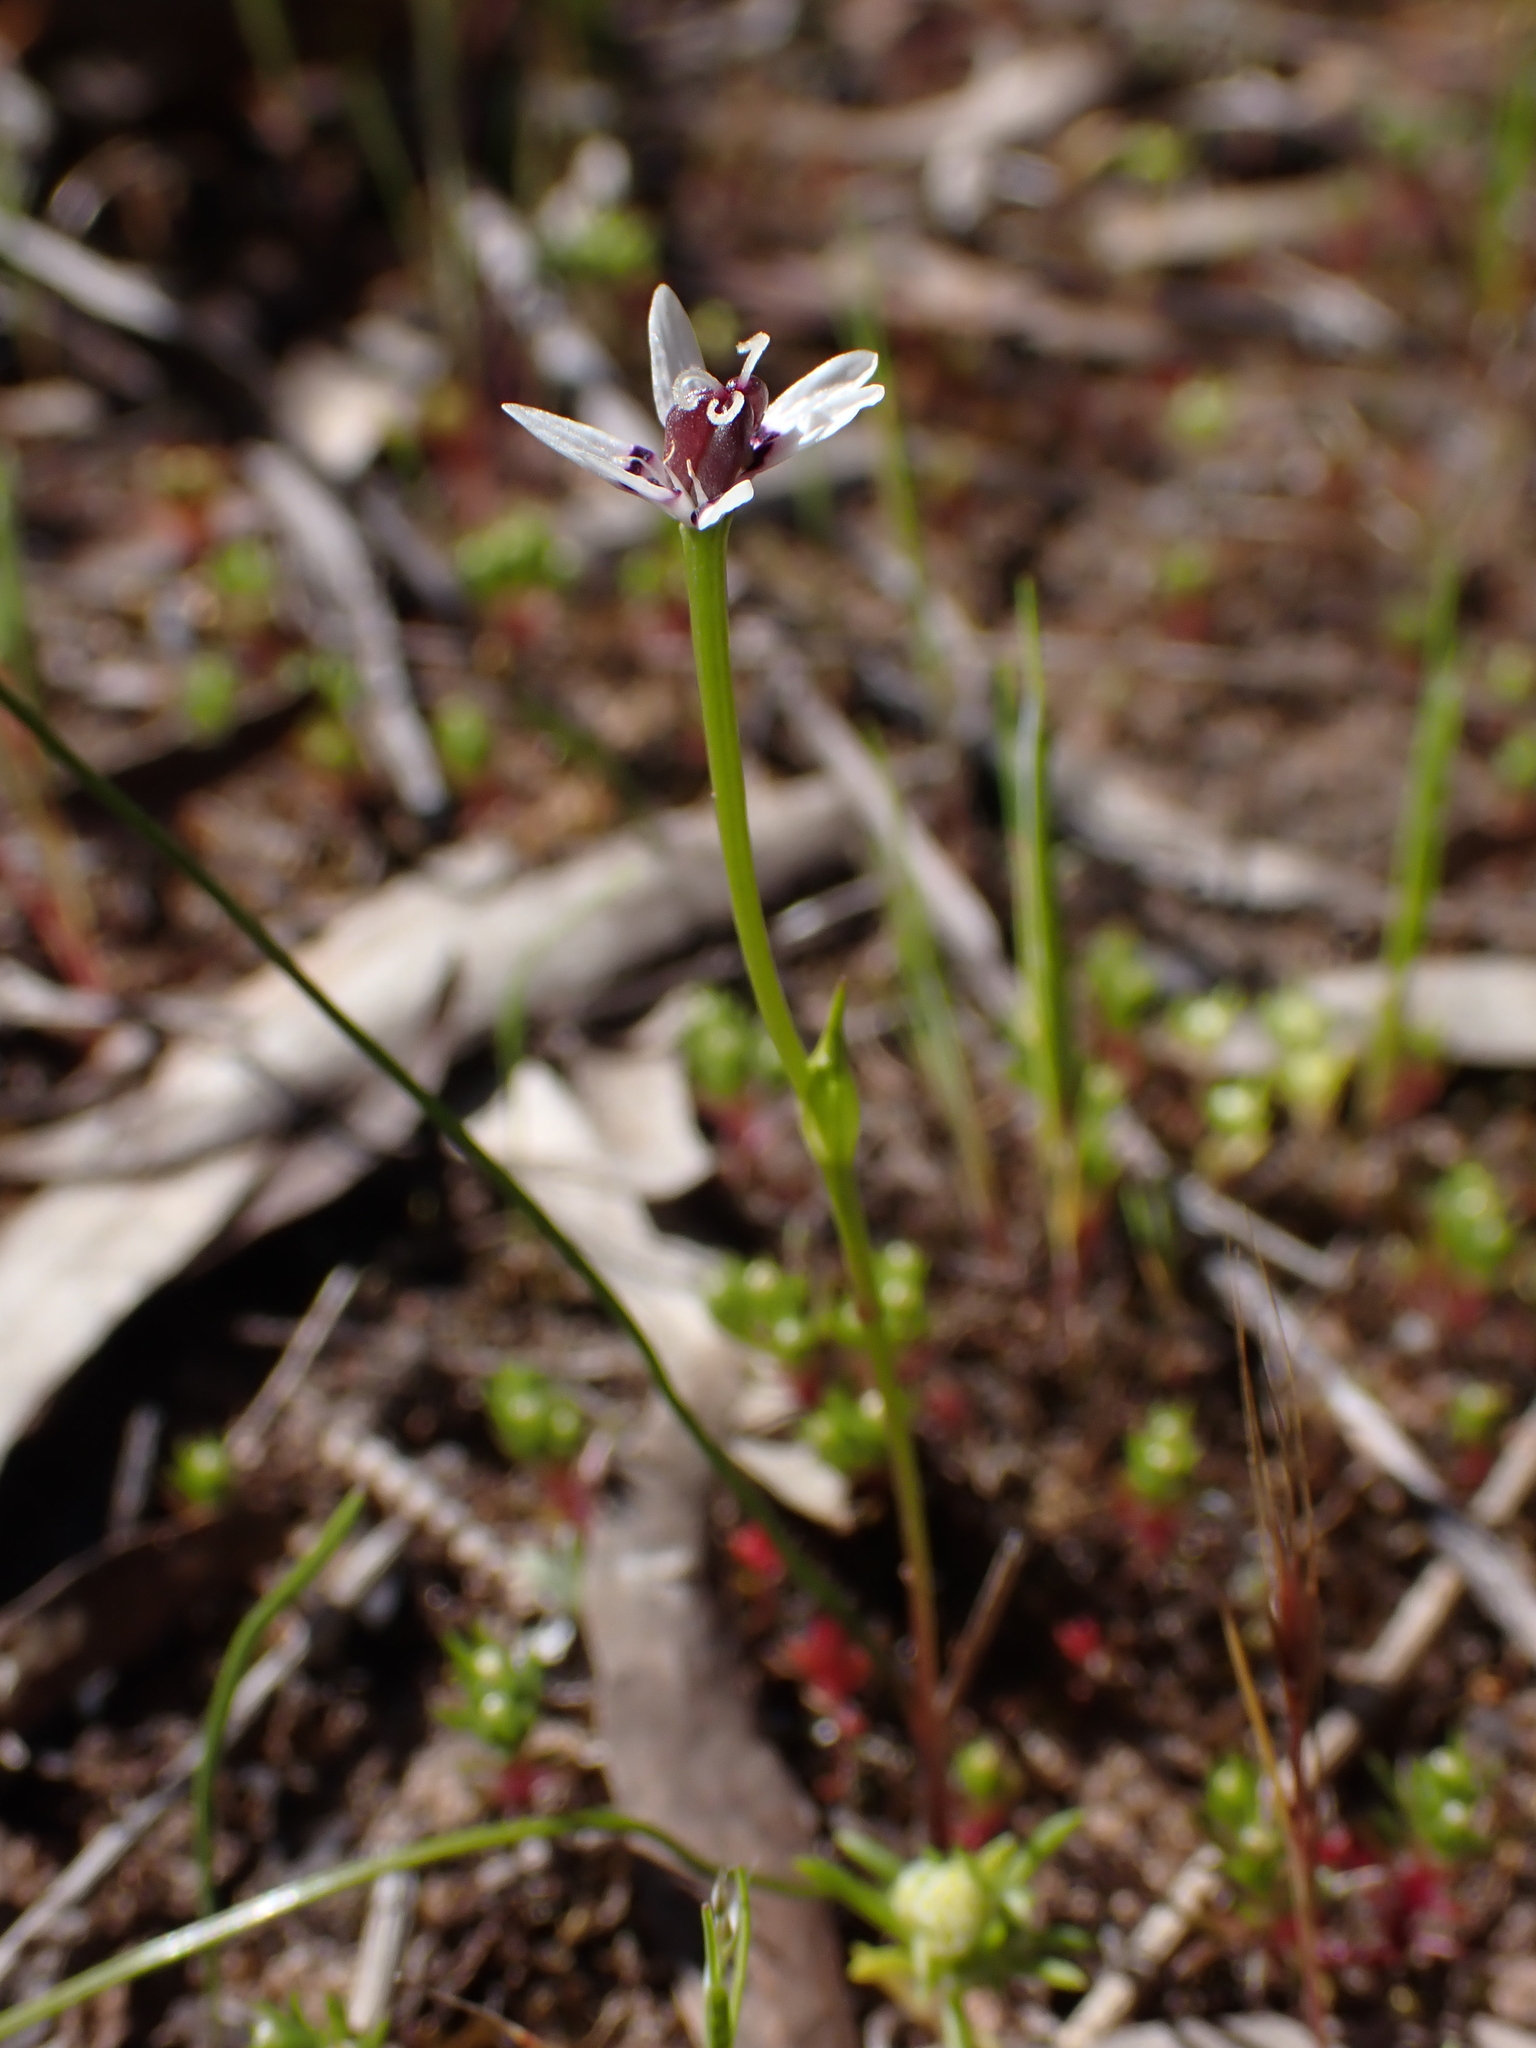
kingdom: Plantae
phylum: Tracheophyta
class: Liliopsida
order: Liliales
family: Colchicaceae
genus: Wurmbea
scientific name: Wurmbea dioica
